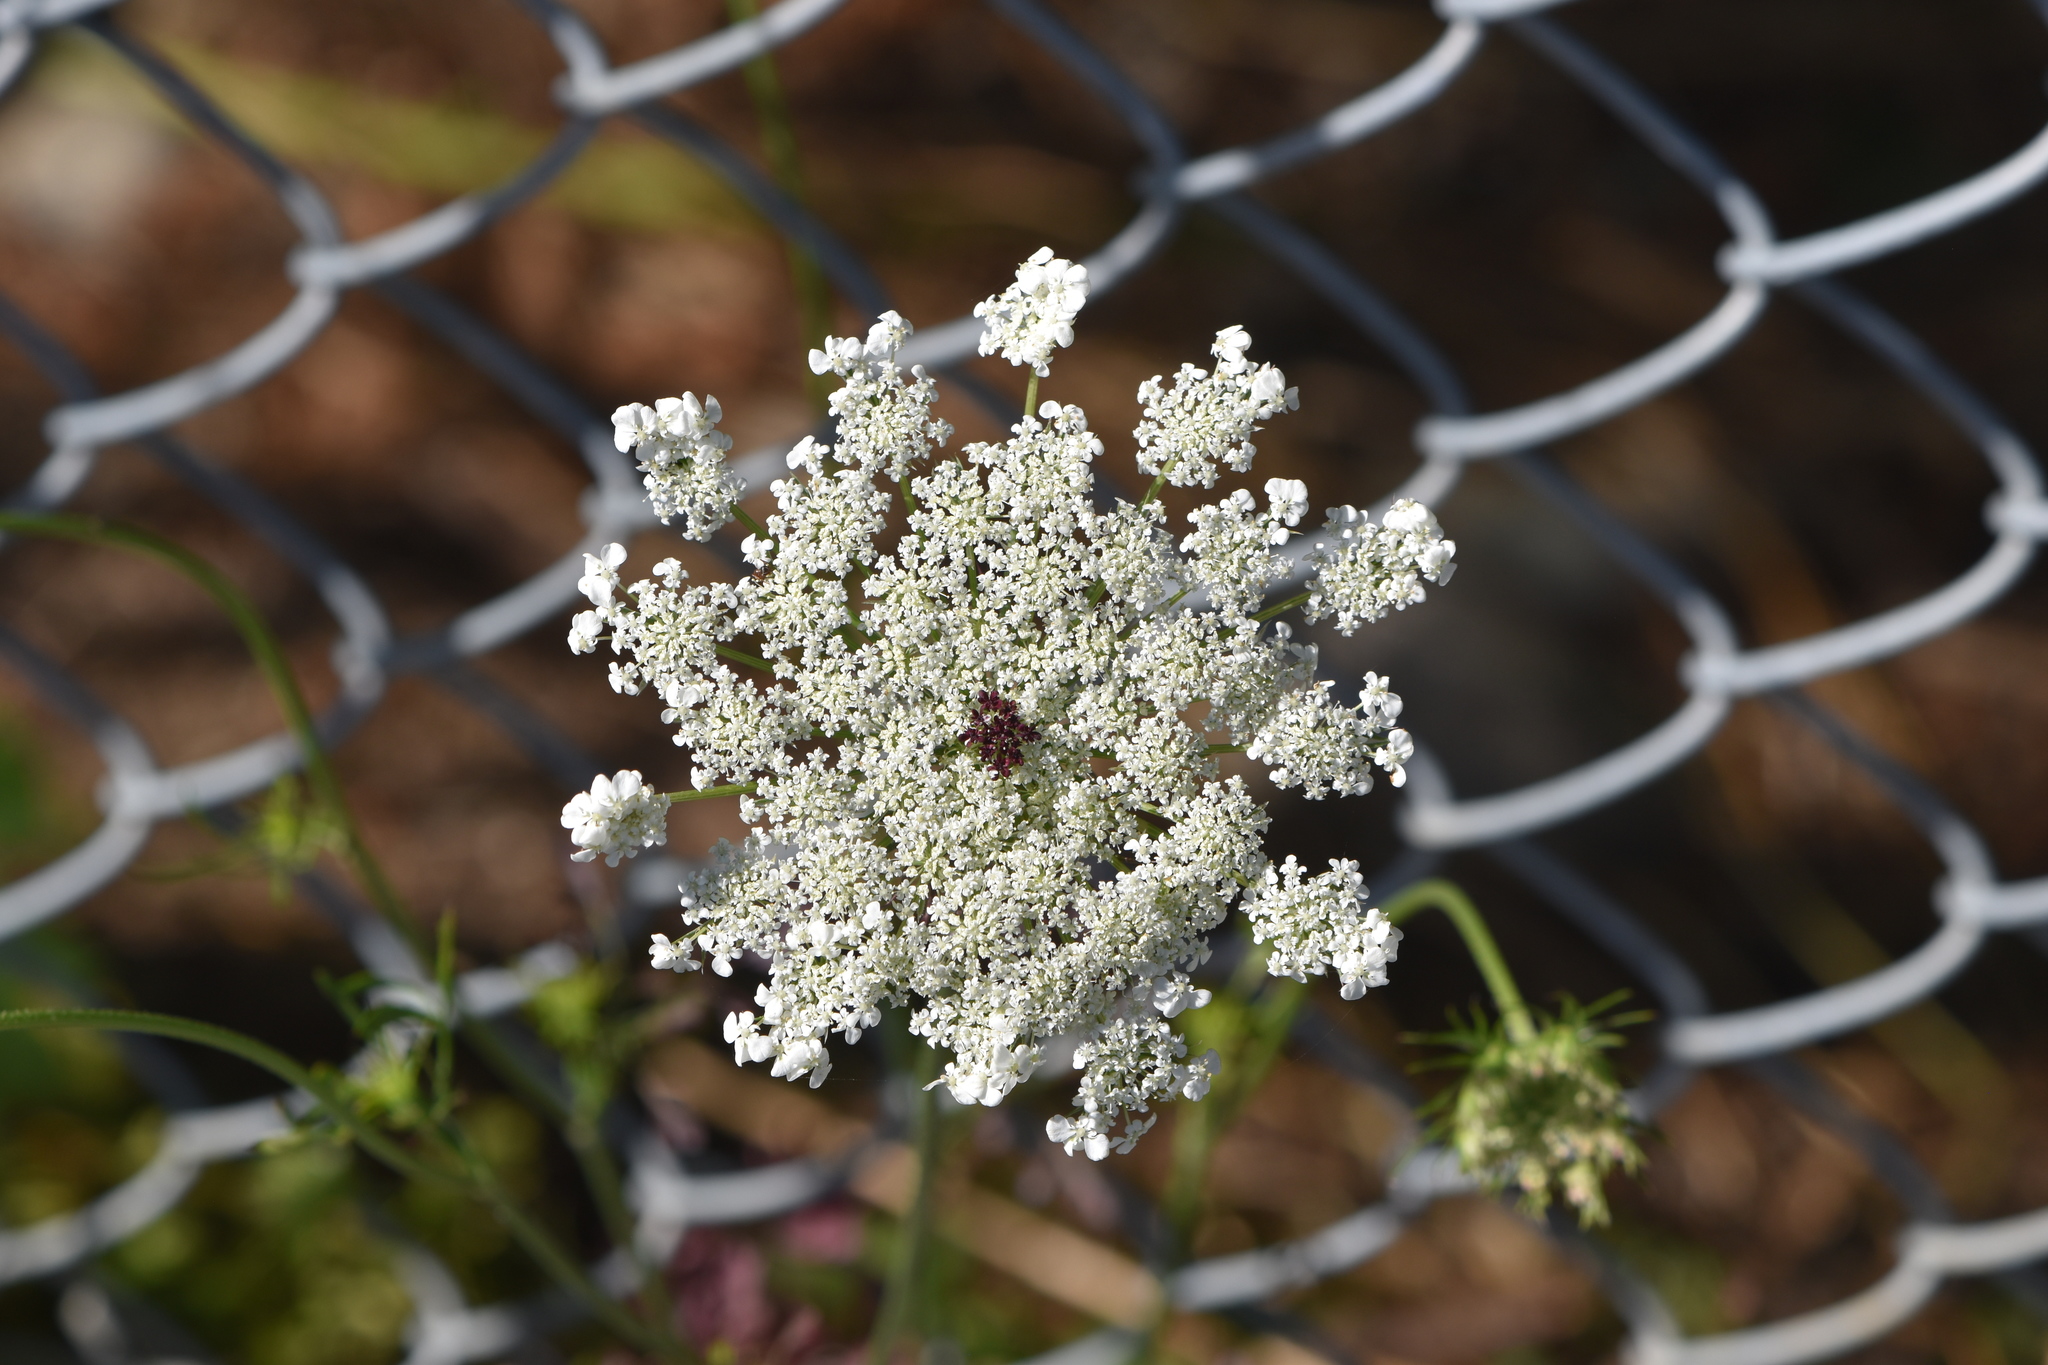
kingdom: Plantae
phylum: Tracheophyta
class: Magnoliopsida
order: Apiales
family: Apiaceae
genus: Daucus
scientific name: Daucus carota
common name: Wild carrot
